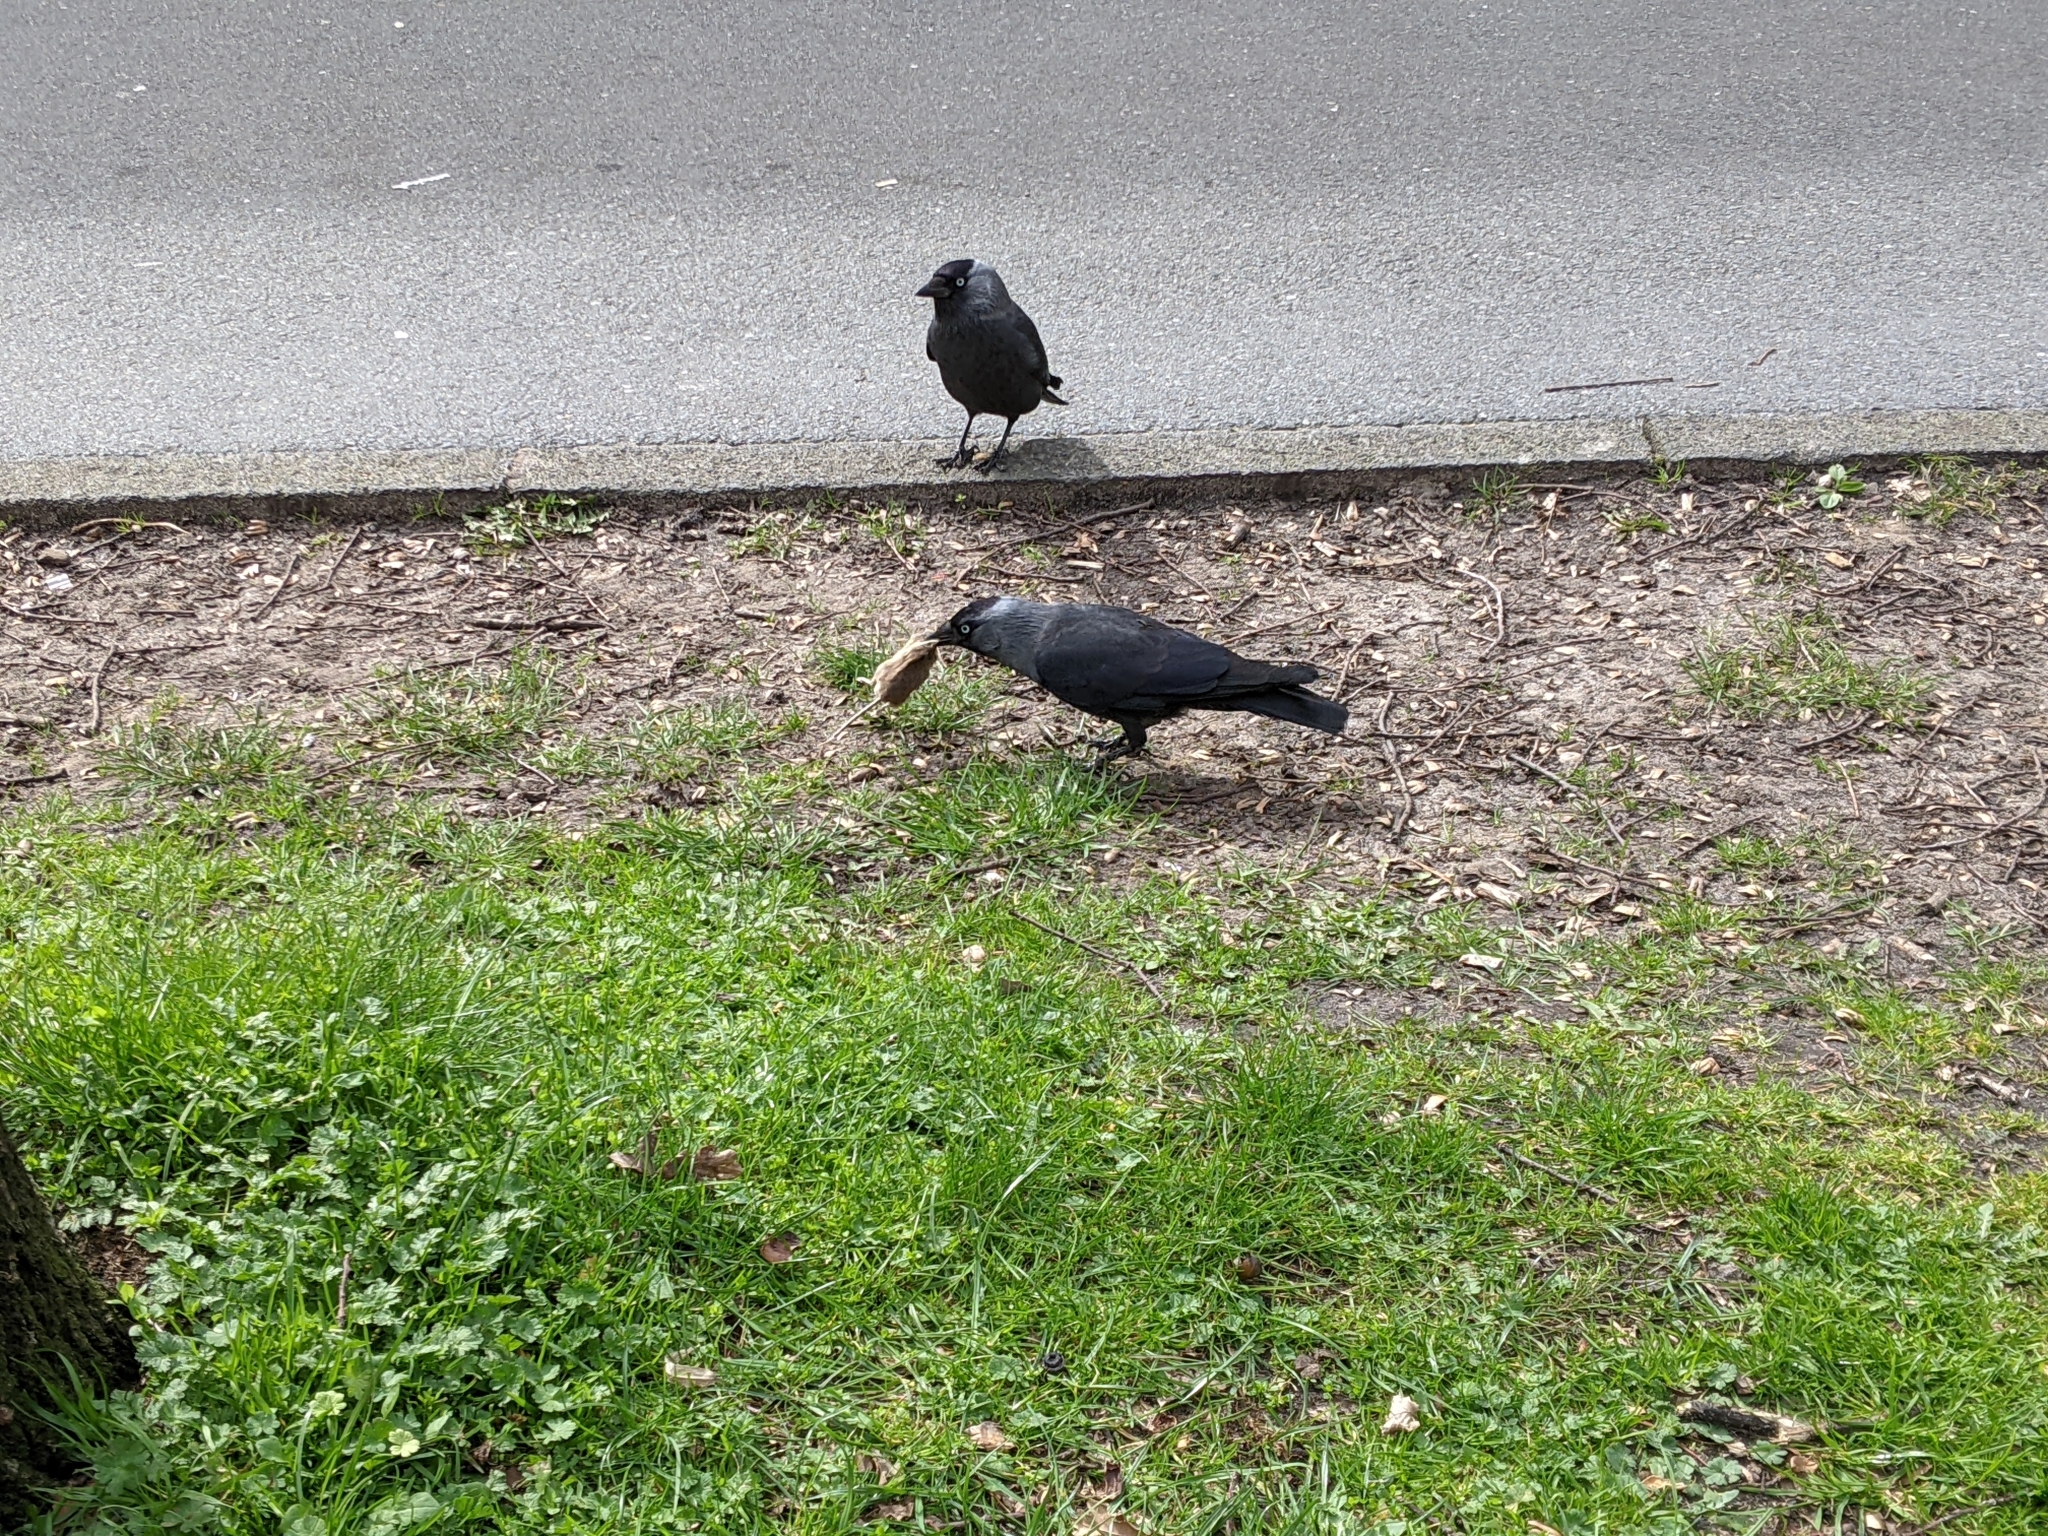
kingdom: Animalia
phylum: Chordata
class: Aves
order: Passeriformes
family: Corvidae
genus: Coloeus
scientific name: Coloeus monedula
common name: Western jackdaw
